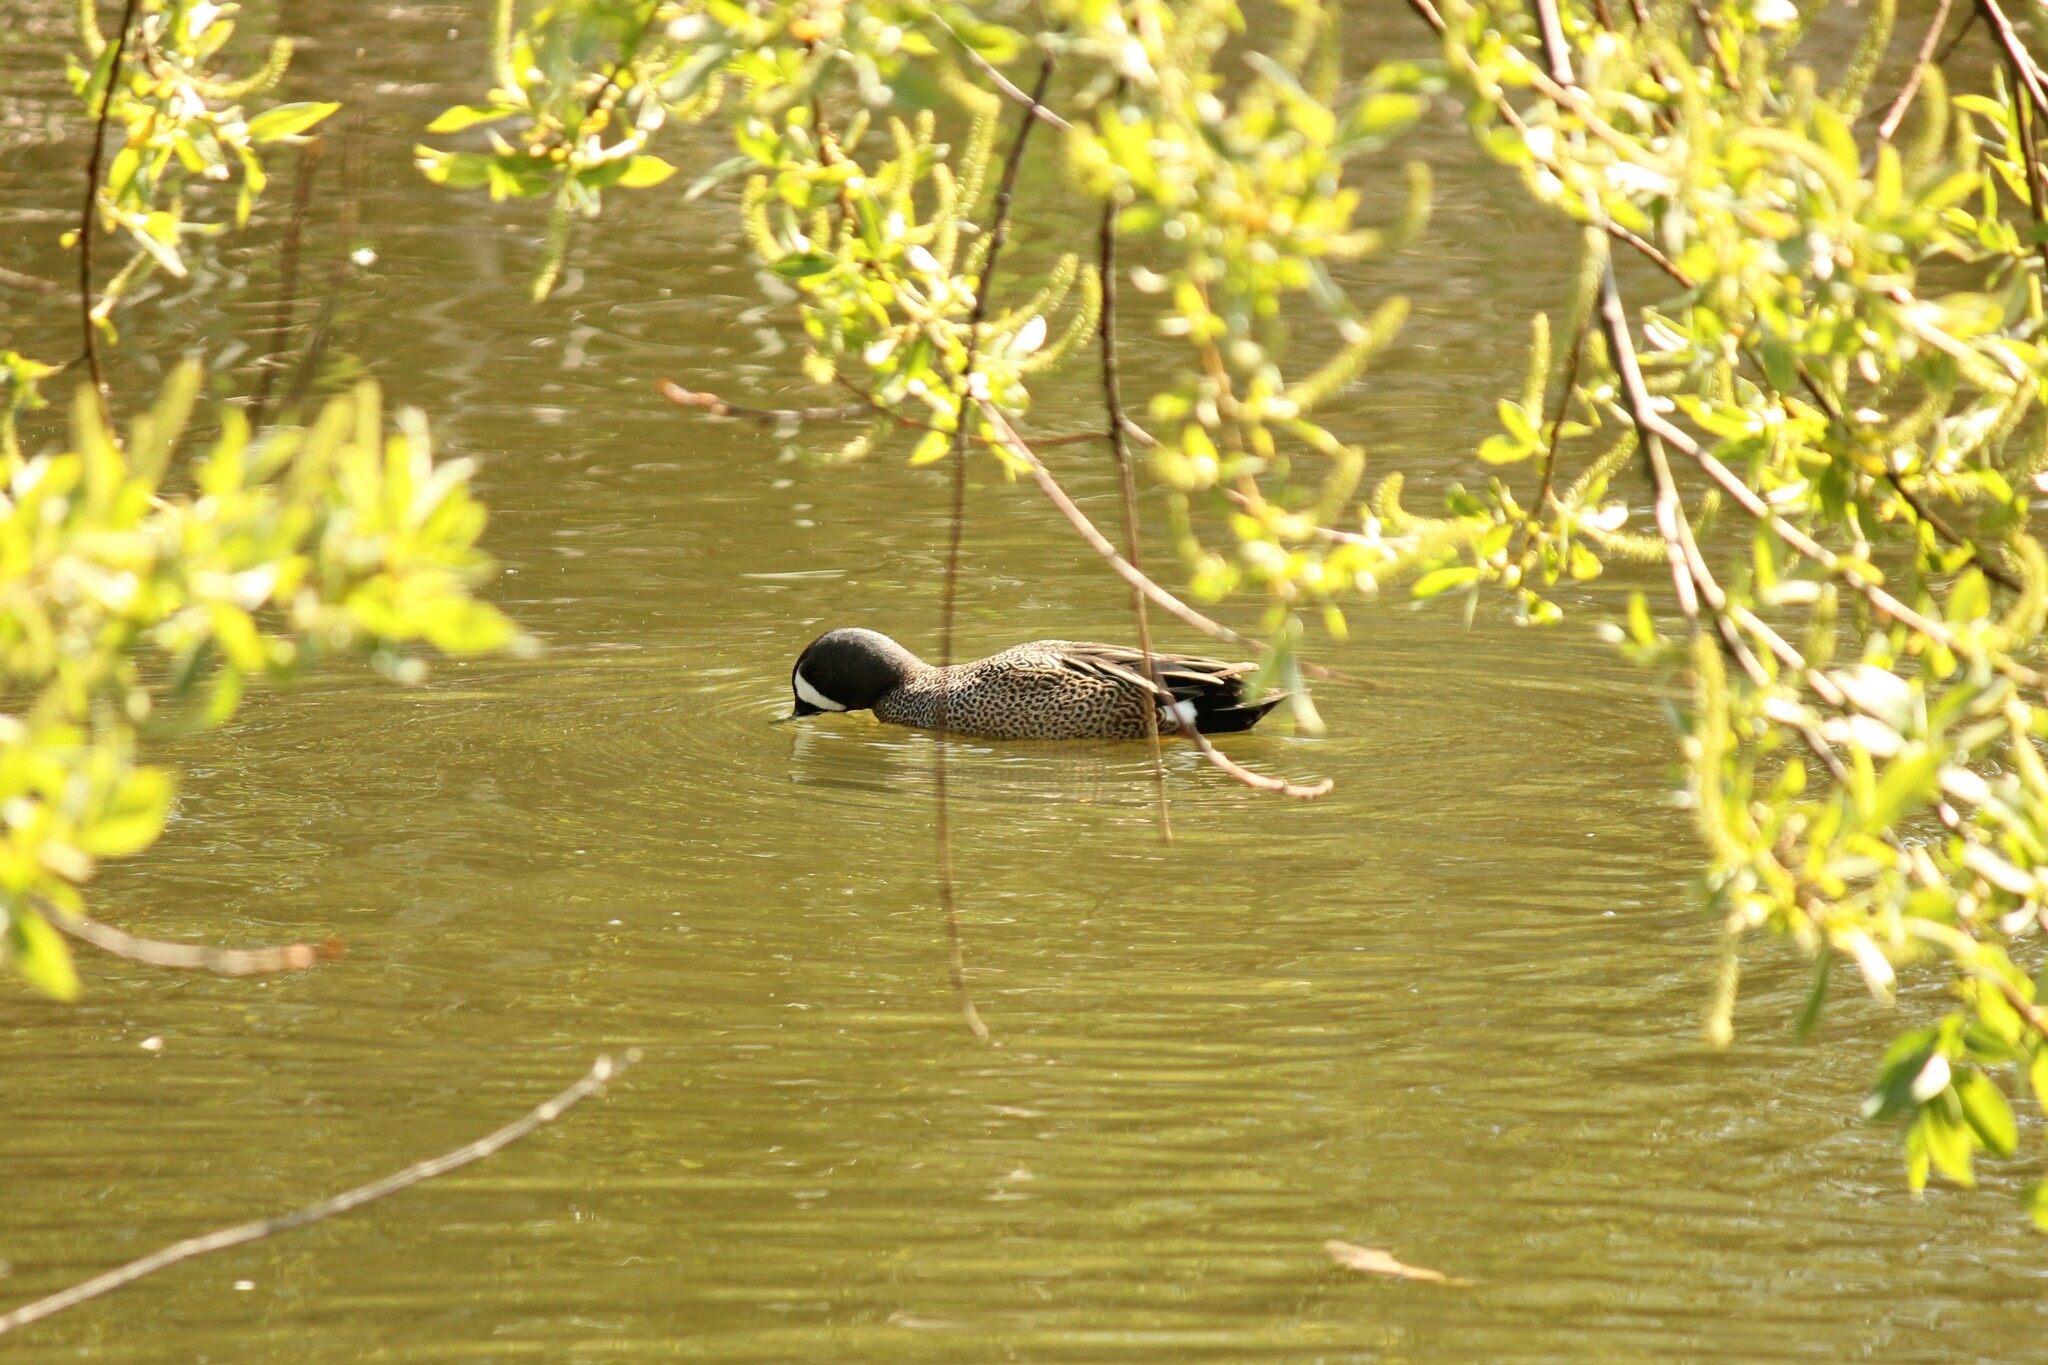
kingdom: Animalia
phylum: Chordata
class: Aves
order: Anseriformes
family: Anatidae
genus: Spatula
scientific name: Spatula discors
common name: Blue-winged teal
